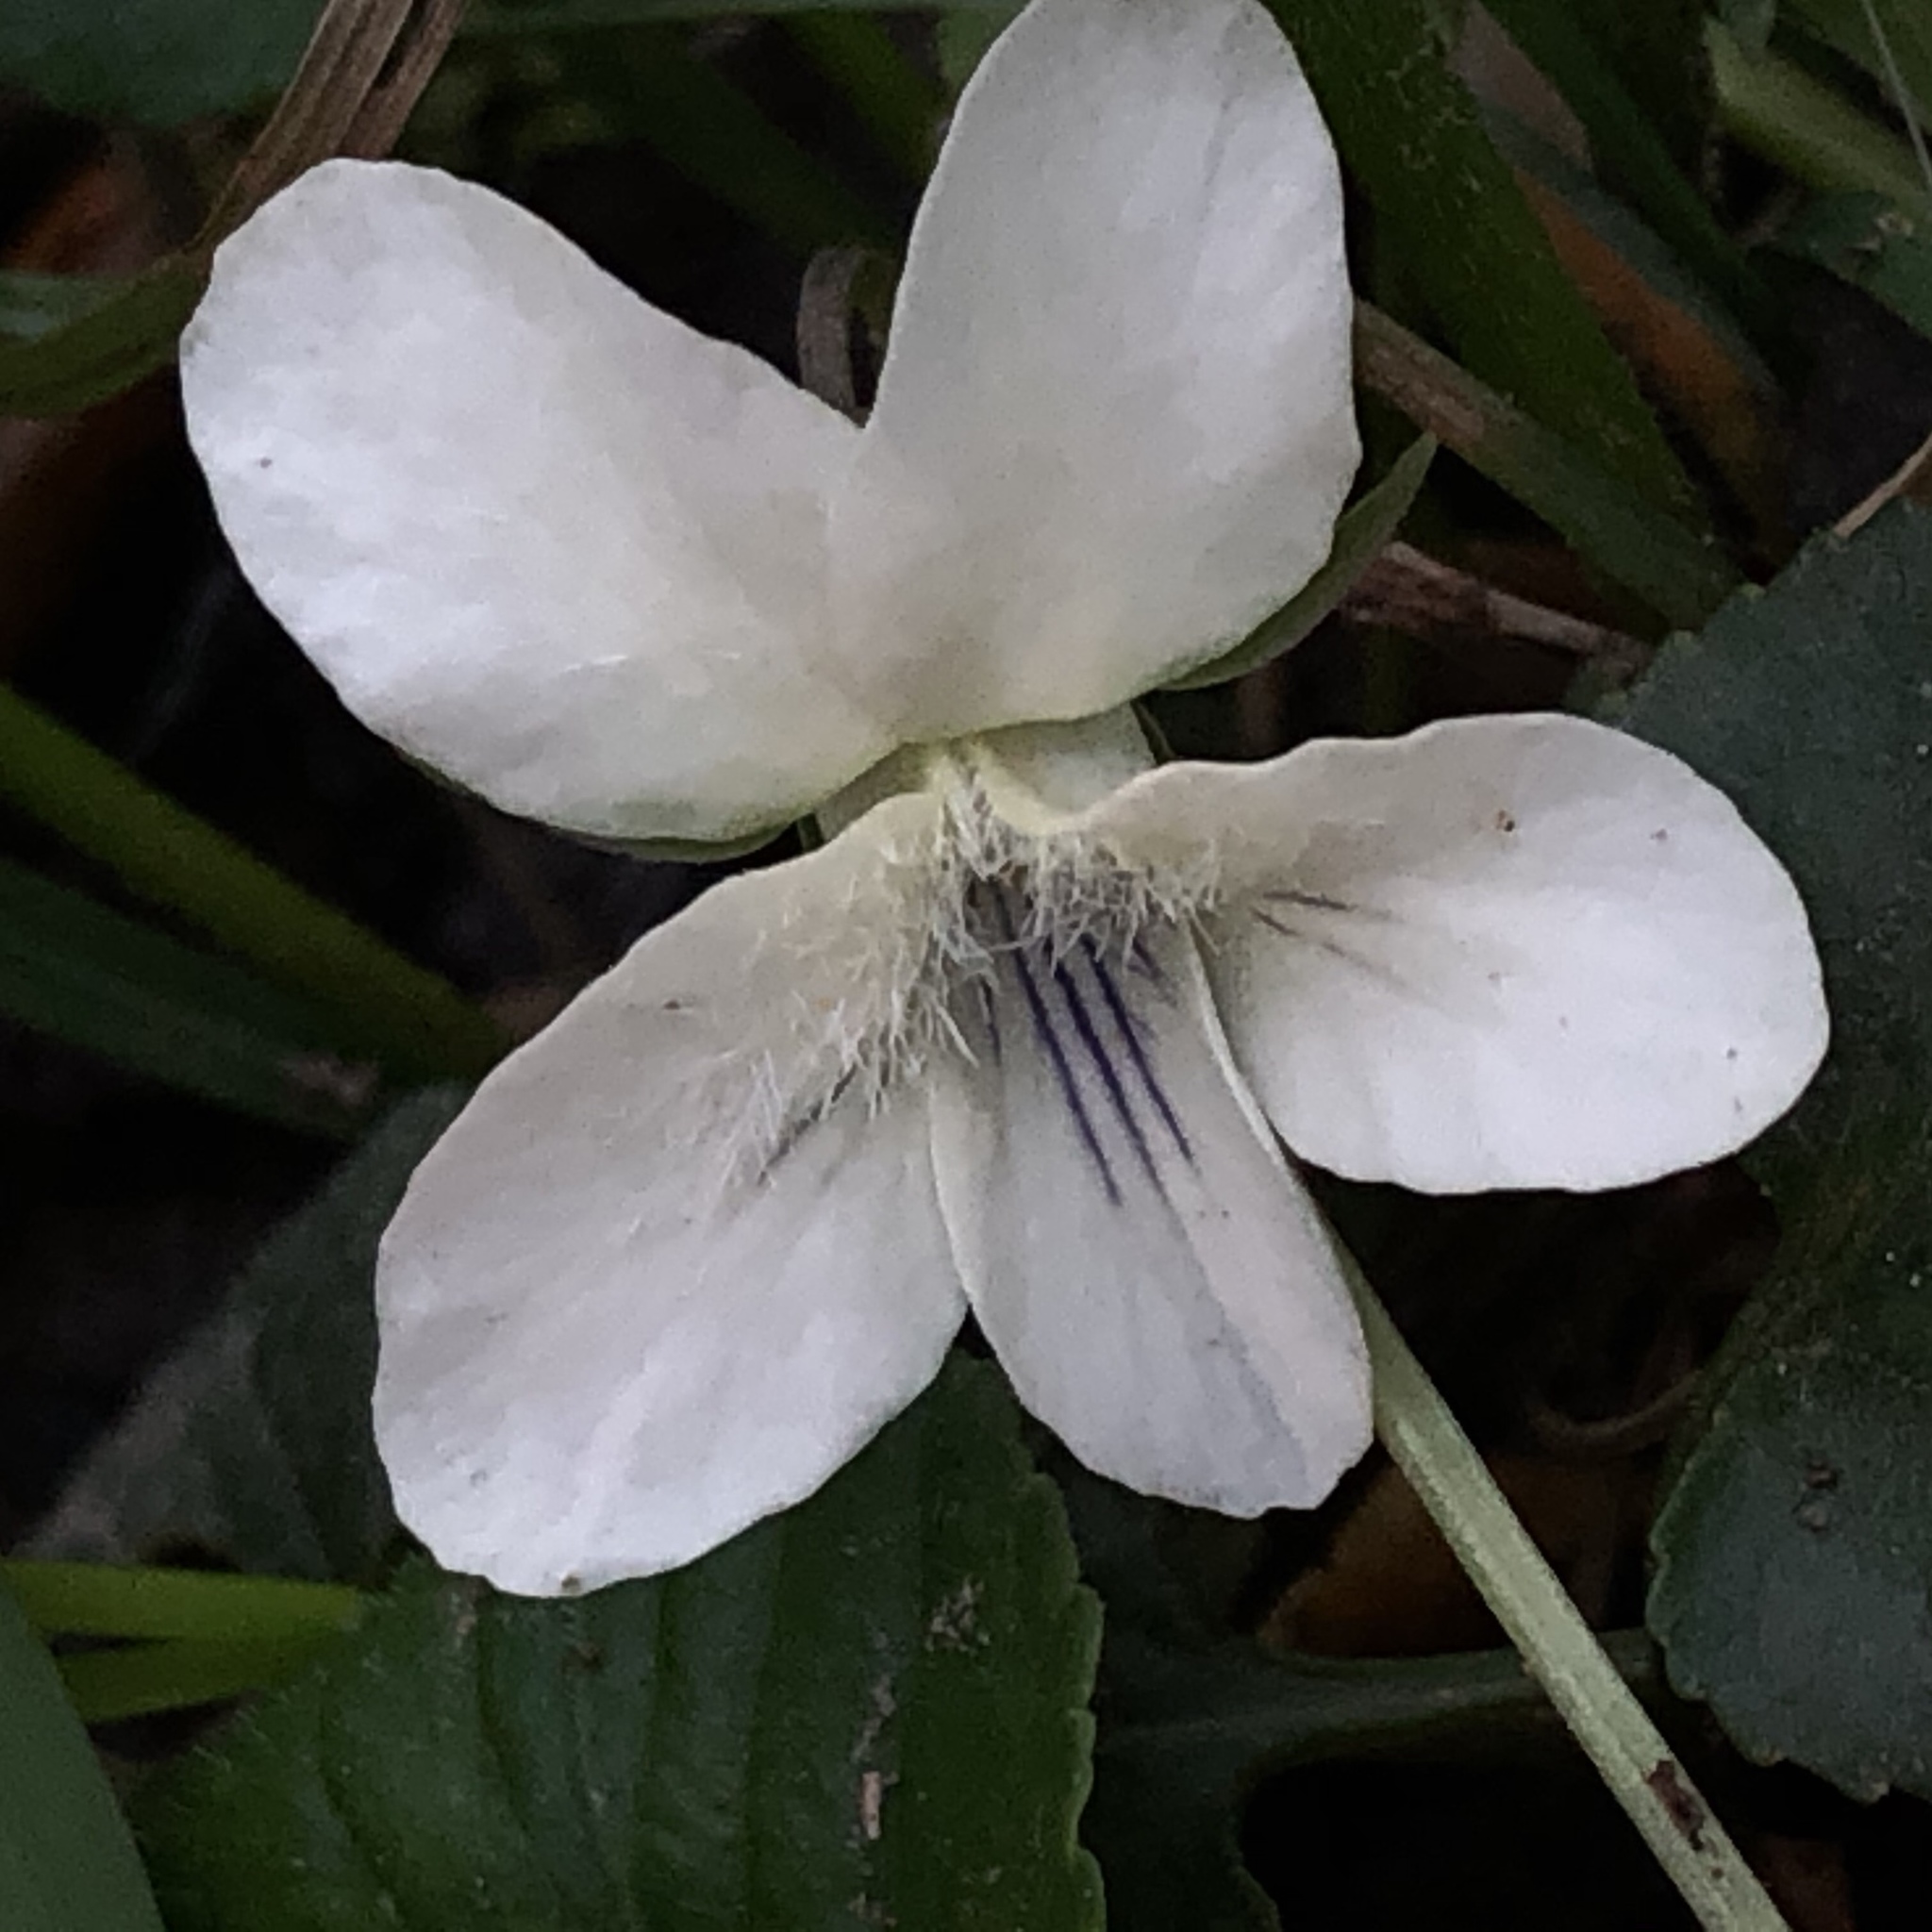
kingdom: Plantae
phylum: Tracheophyta
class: Magnoliopsida
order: Malpighiales
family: Violaceae
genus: Viola
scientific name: Viola striata
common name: Cream violet
